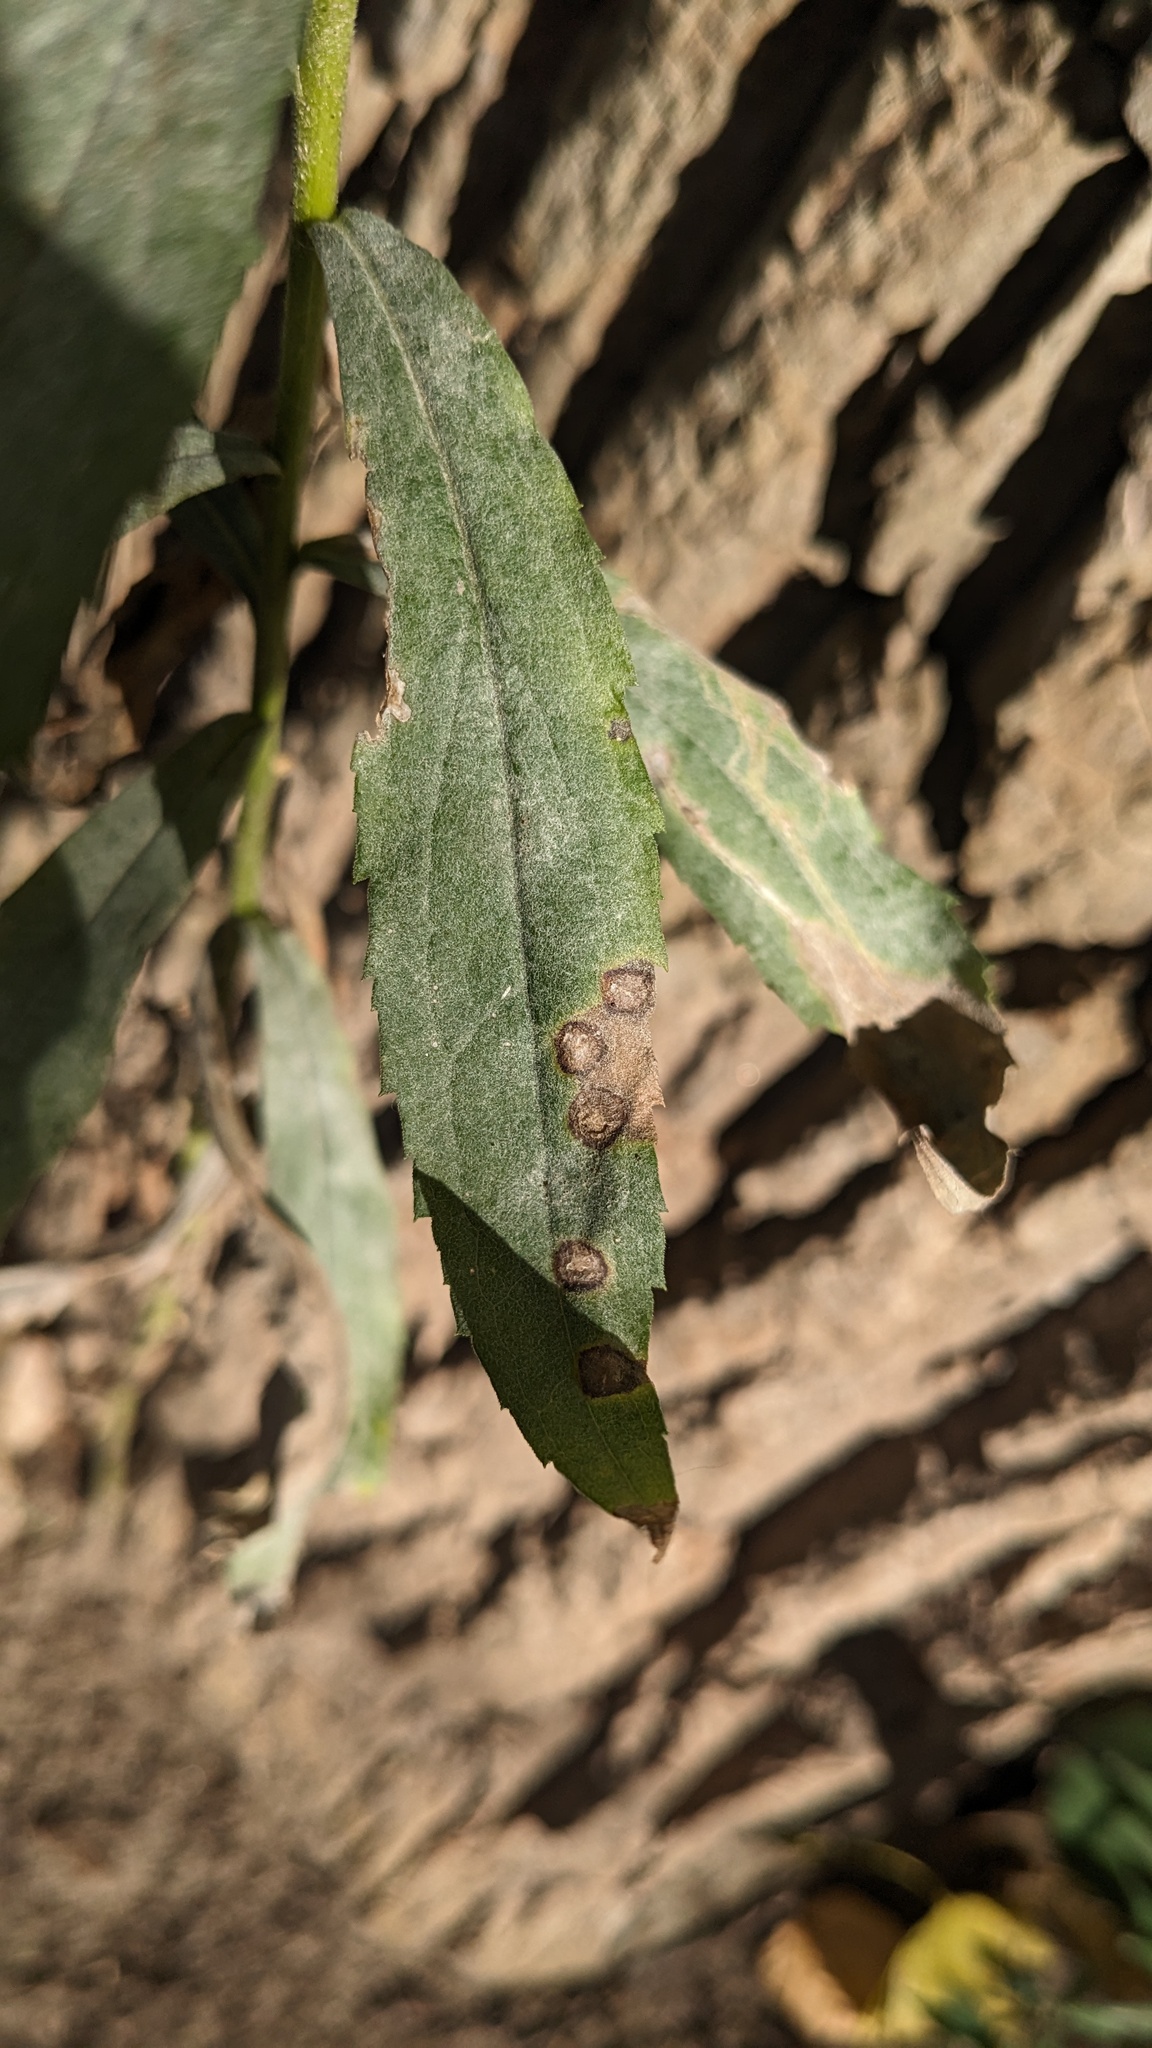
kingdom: Animalia
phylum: Arthropoda
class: Insecta
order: Diptera
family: Cecidomyiidae
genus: Asteromyia
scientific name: Asteromyia carbonifera
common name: Carbonifera goldenrod gall midge
